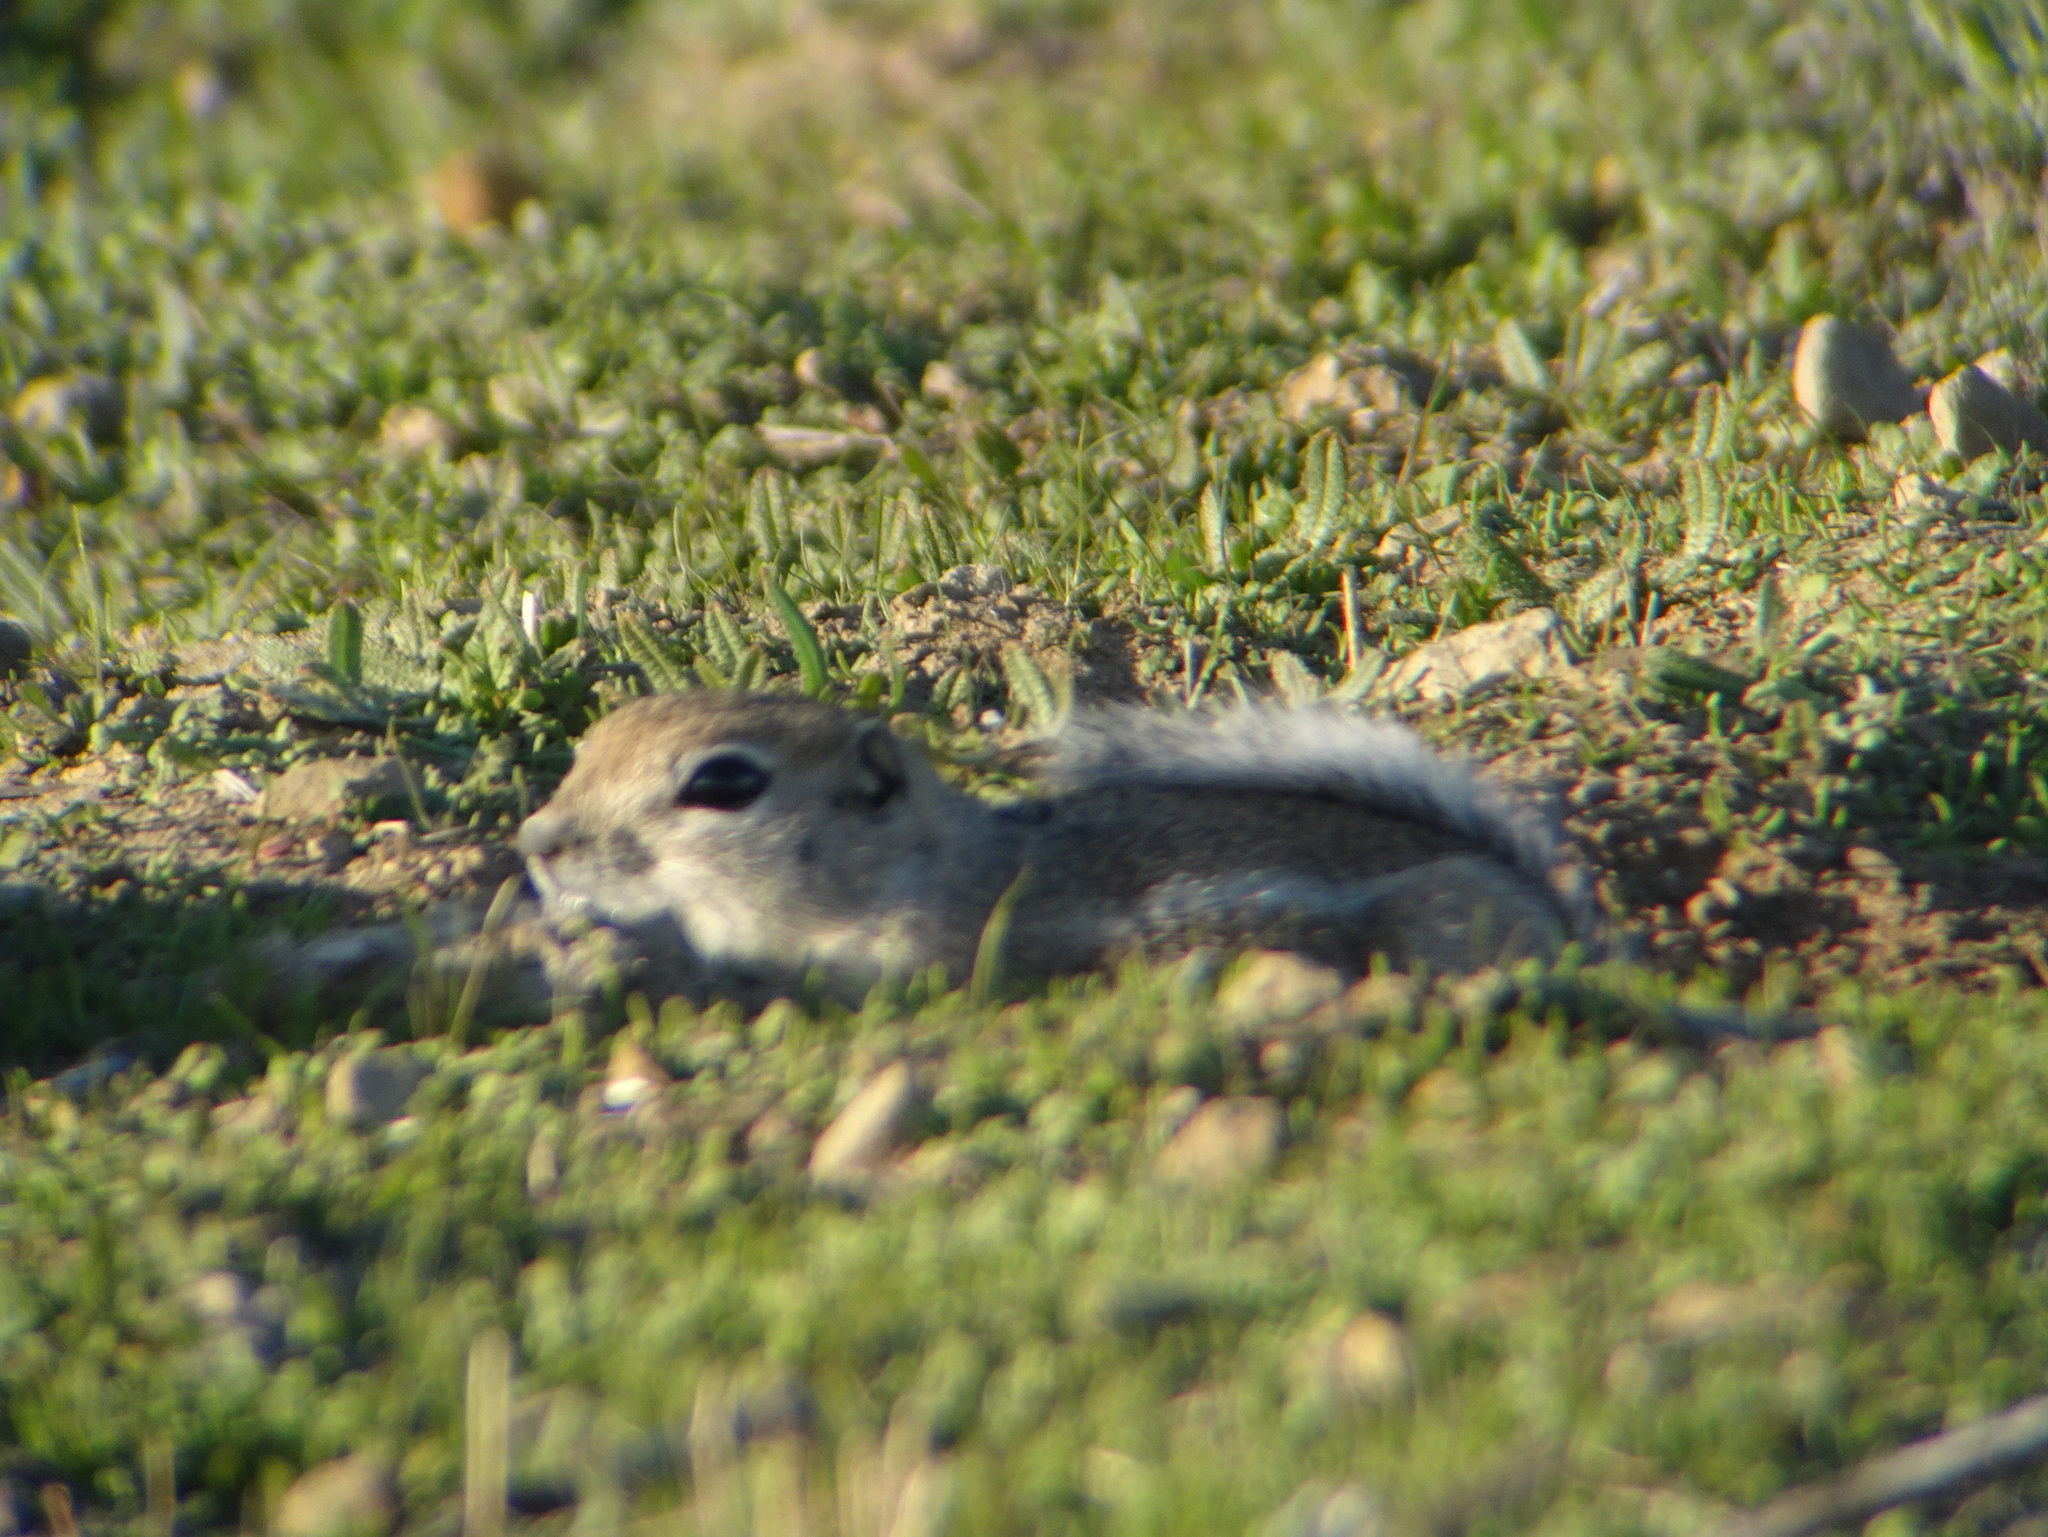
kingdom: Animalia
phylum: Chordata
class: Mammalia
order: Rodentia
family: Sciuridae
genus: Ammospermophilus
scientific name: Ammospermophilus nelsoni
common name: Nelson's antelope squirrel
